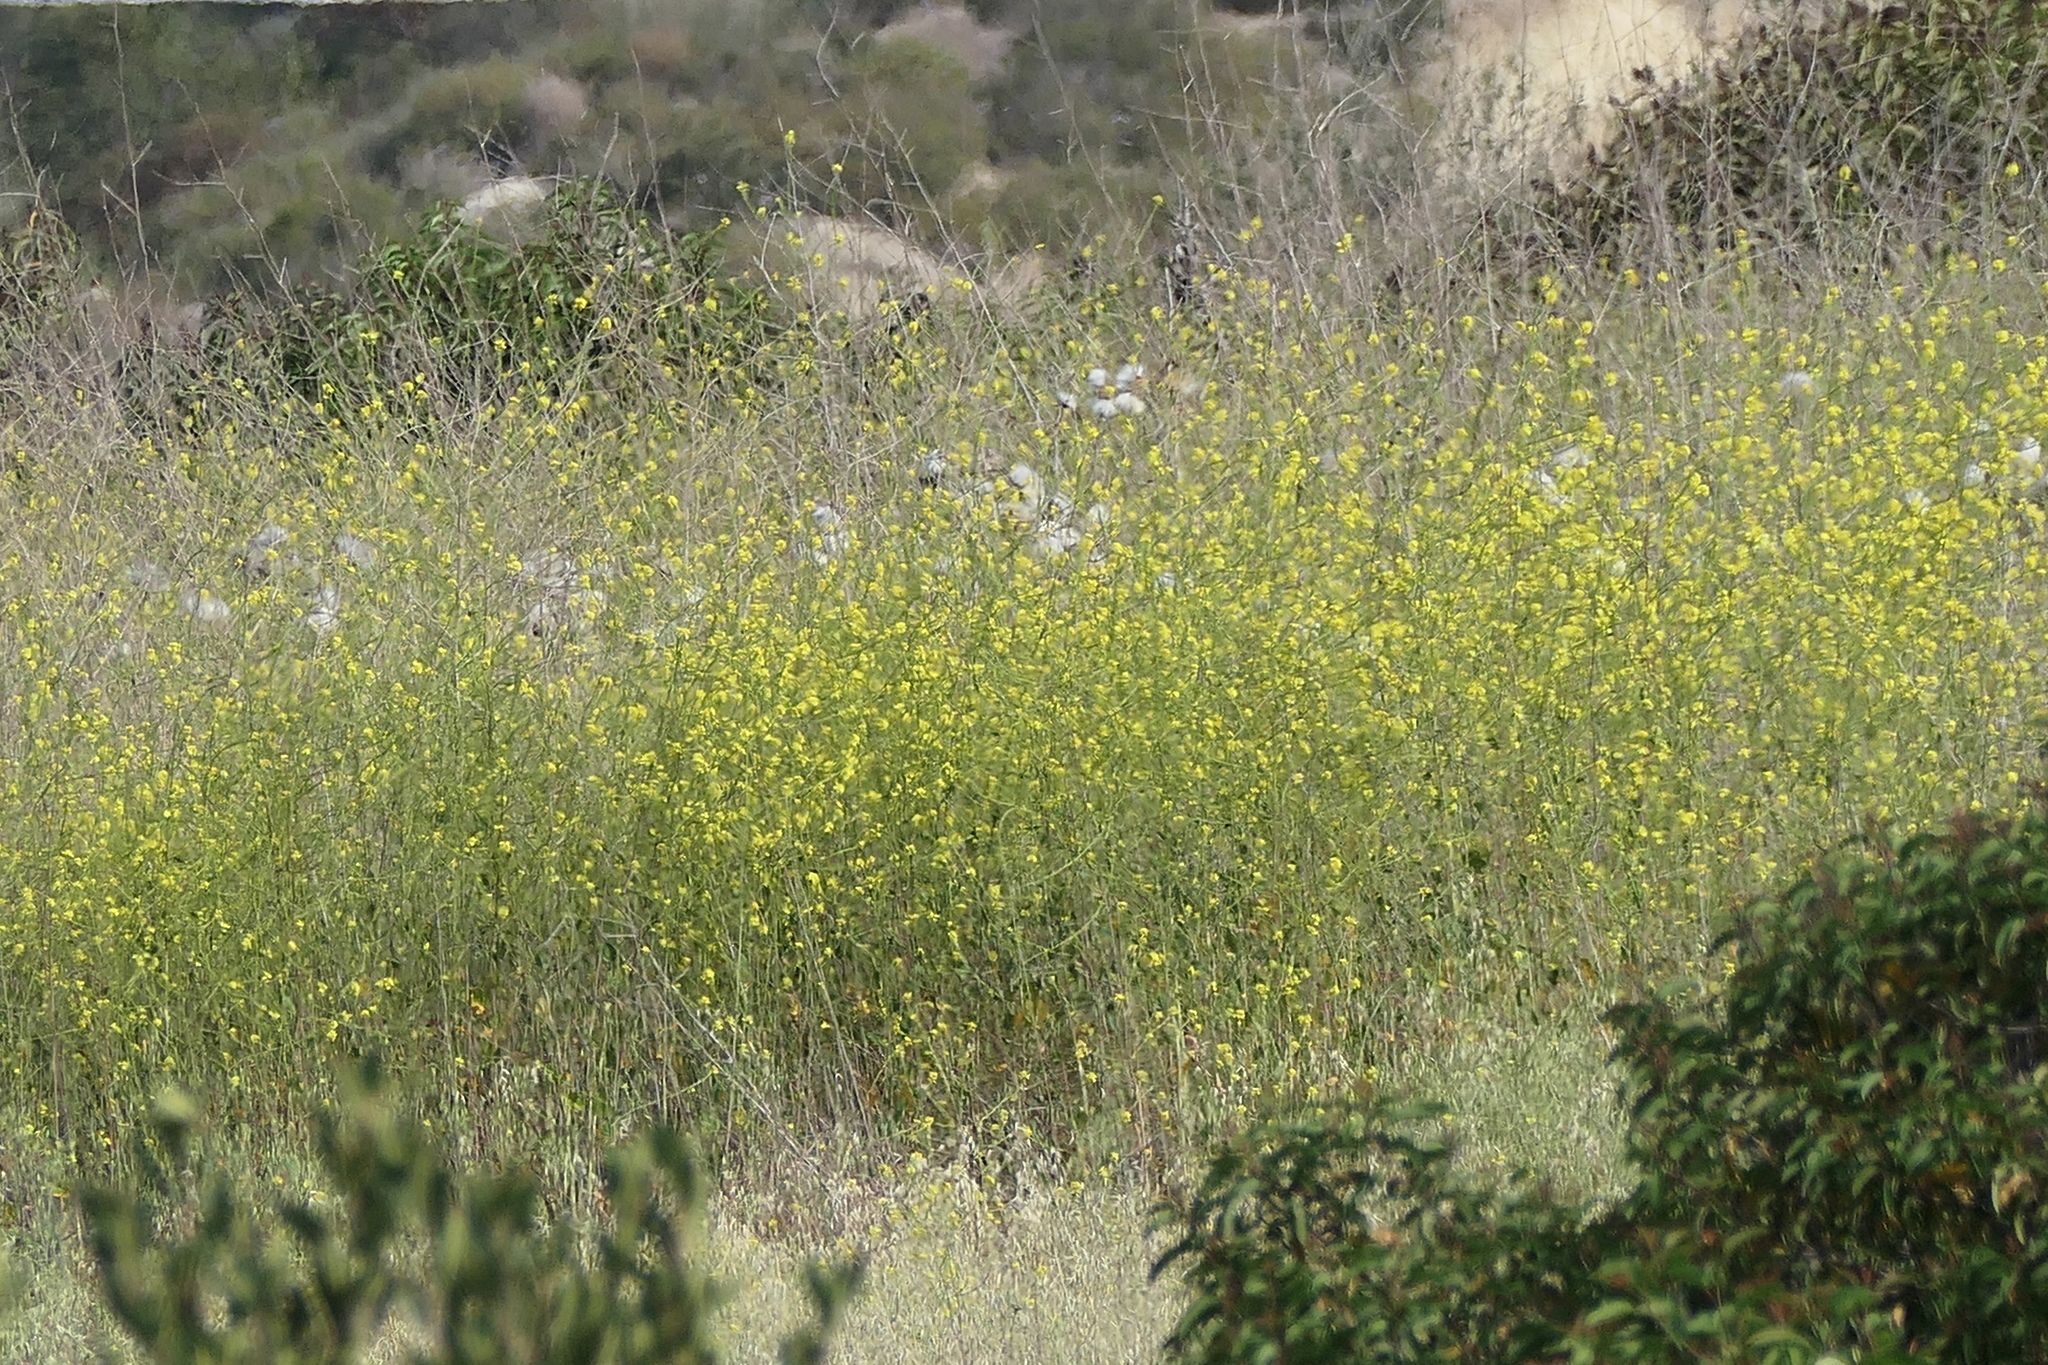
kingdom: Plantae
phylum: Tracheophyta
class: Magnoliopsida
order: Brassicales
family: Brassicaceae
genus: Brassica
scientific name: Brassica nigra
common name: Black mustard
